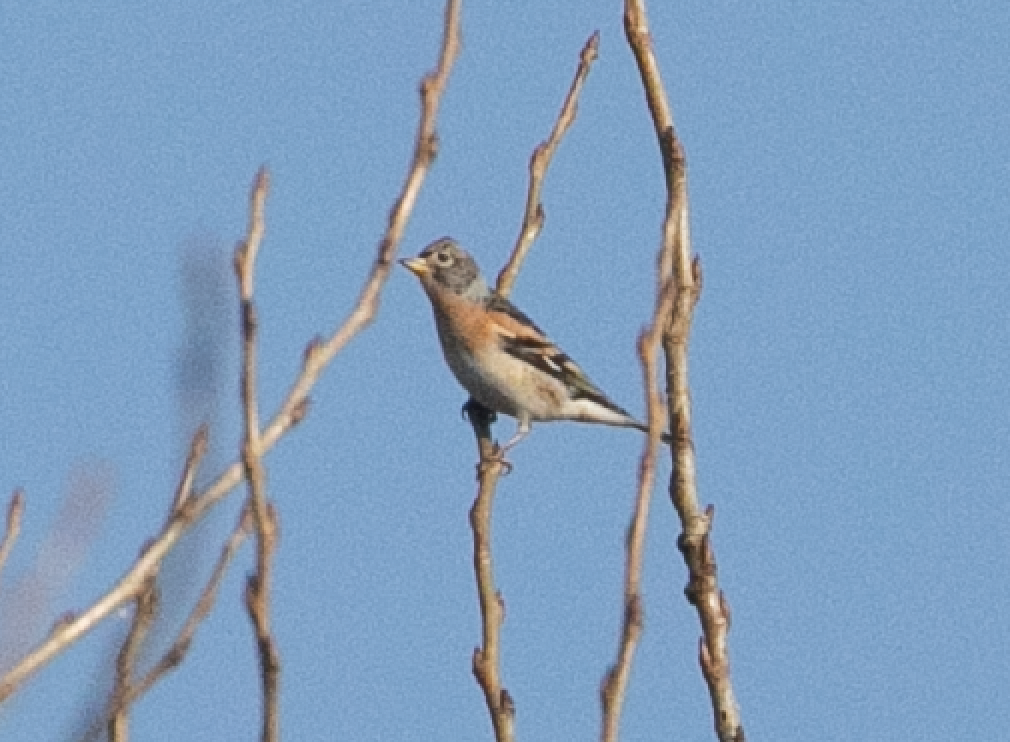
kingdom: Animalia
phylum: Chordata
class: Aves
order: Passeriformes
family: Fringillidae
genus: Fringilla
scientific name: Fringilla montifringilla
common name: Brambling
